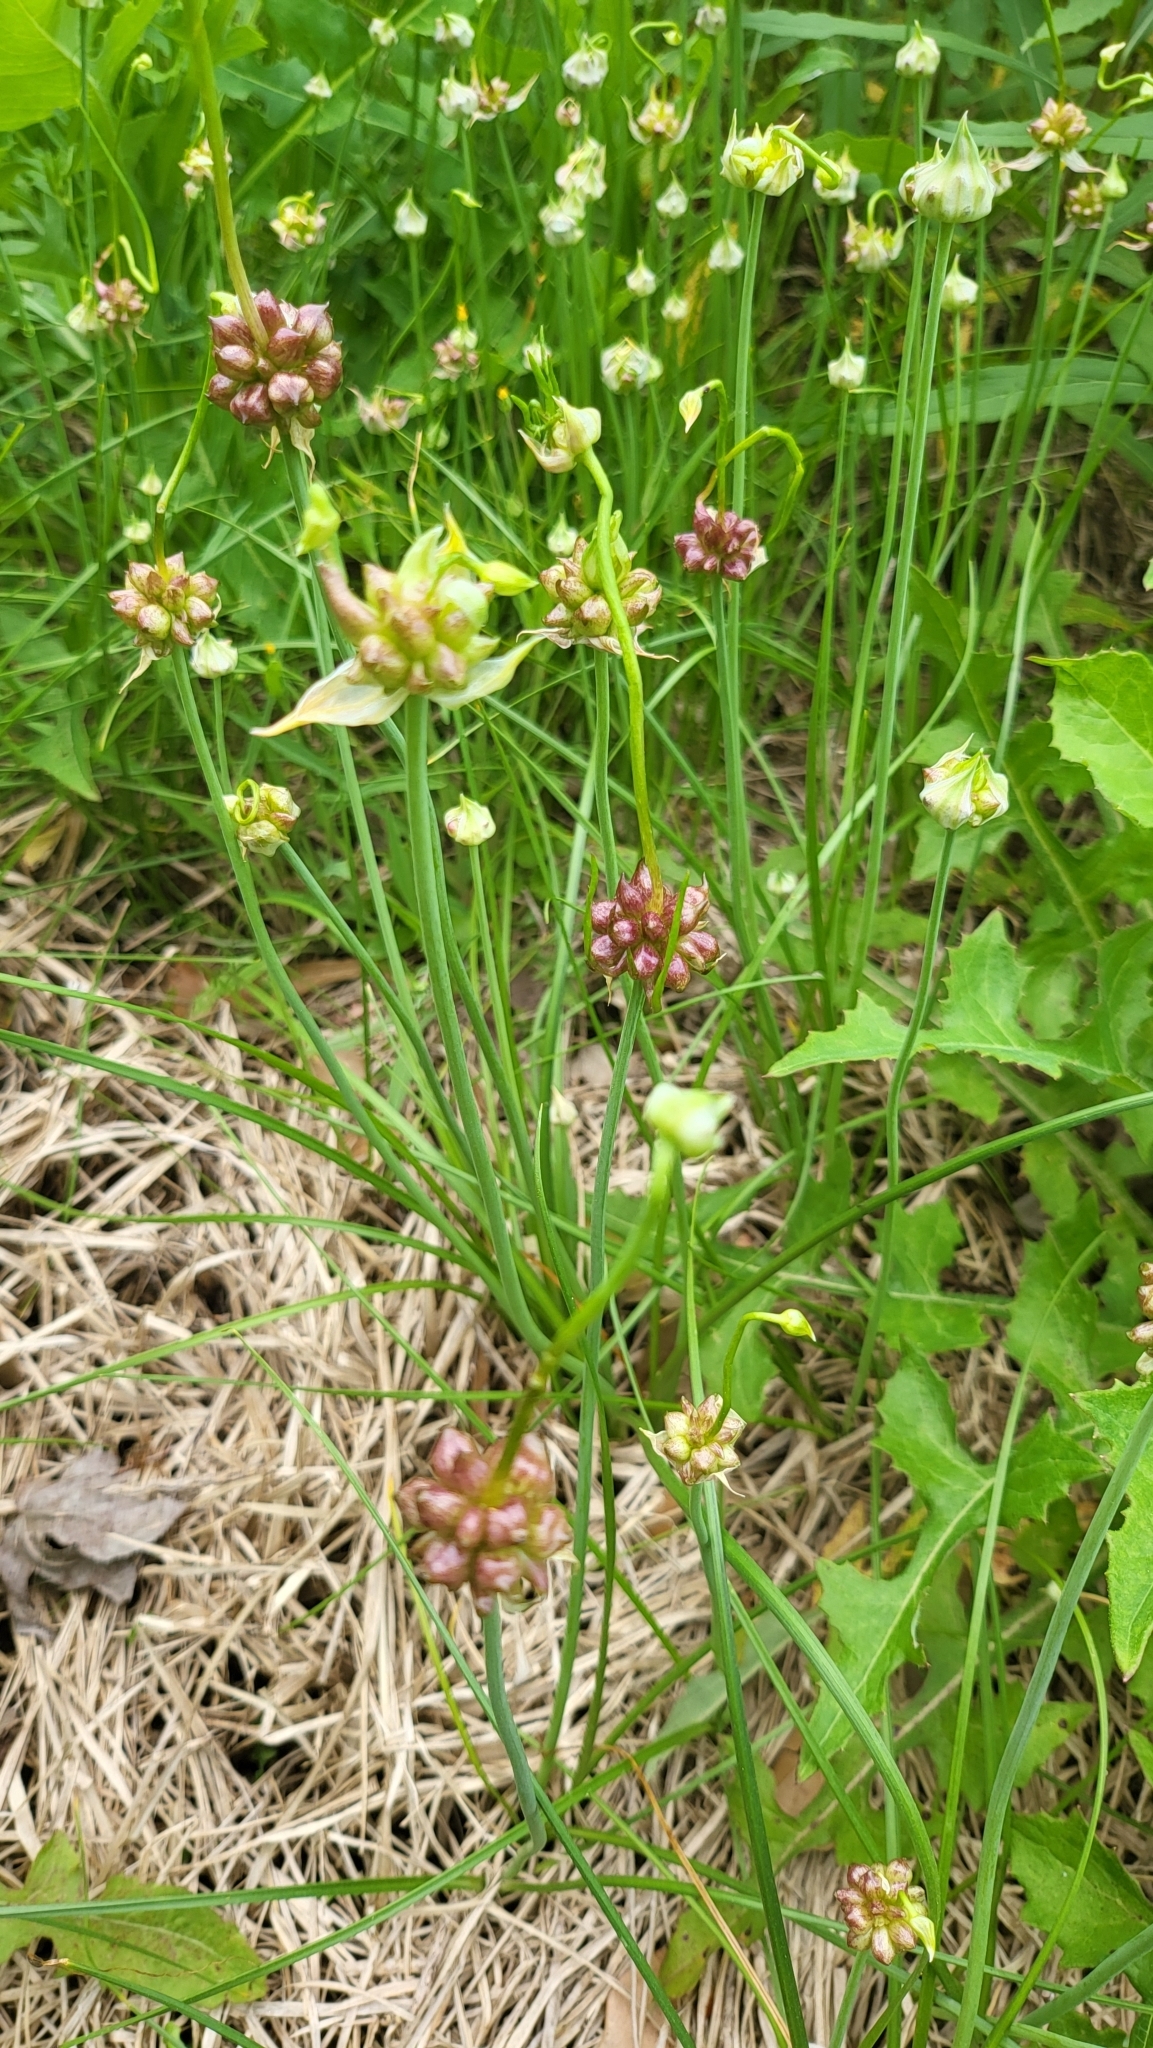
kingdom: Plantae
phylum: Tracheophyta
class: Liliopsida
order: Asparagales
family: Amaryllidaceae
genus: Allium
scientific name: Allium canadense
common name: Meadow garlic
